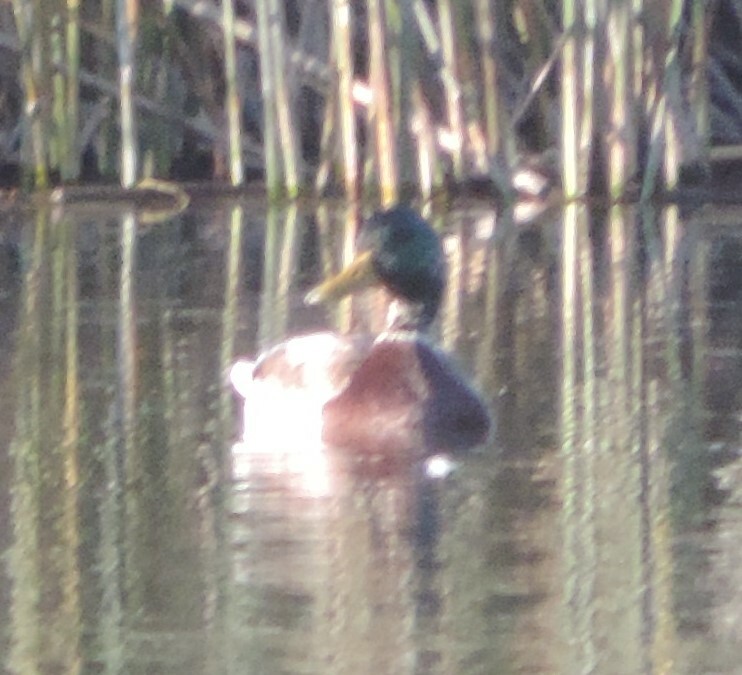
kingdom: Animalia
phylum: Chordata
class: Aves
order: Anseriformes
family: Anatidae
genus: Anas
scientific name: Anas platyrhynchos
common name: Mallard
